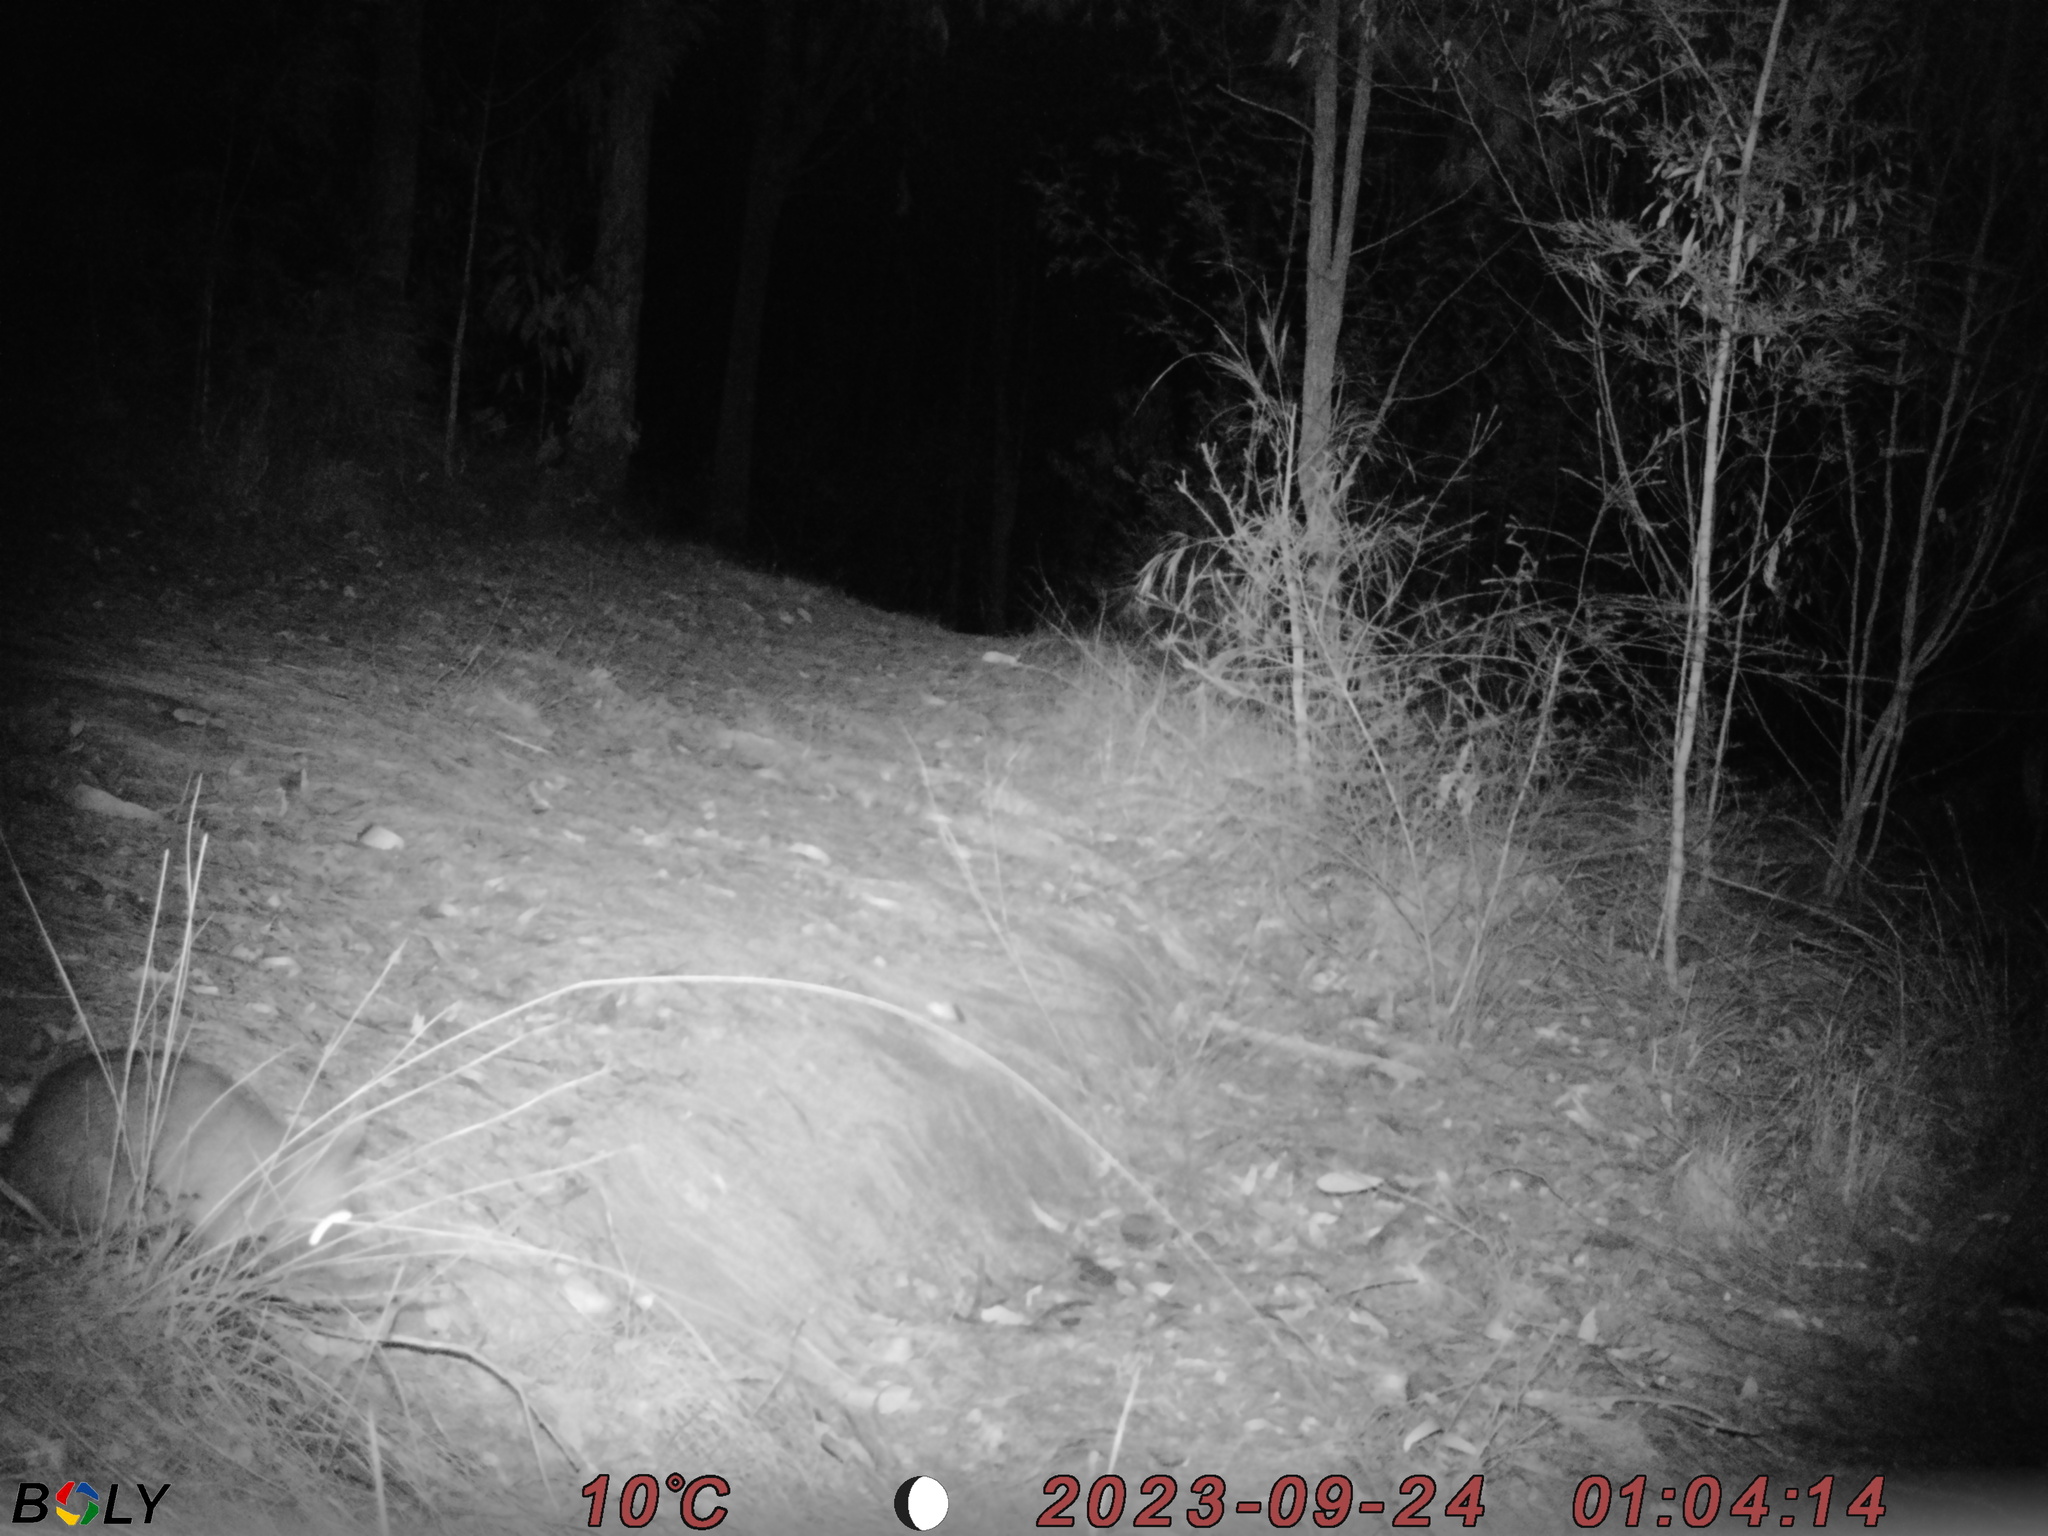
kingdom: Animalia
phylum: Chordata
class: Mammalia
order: Peramelemorphia
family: Peramelidae
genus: Perameles
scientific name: Perameles nasuta
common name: Long-nosed bandicoot
